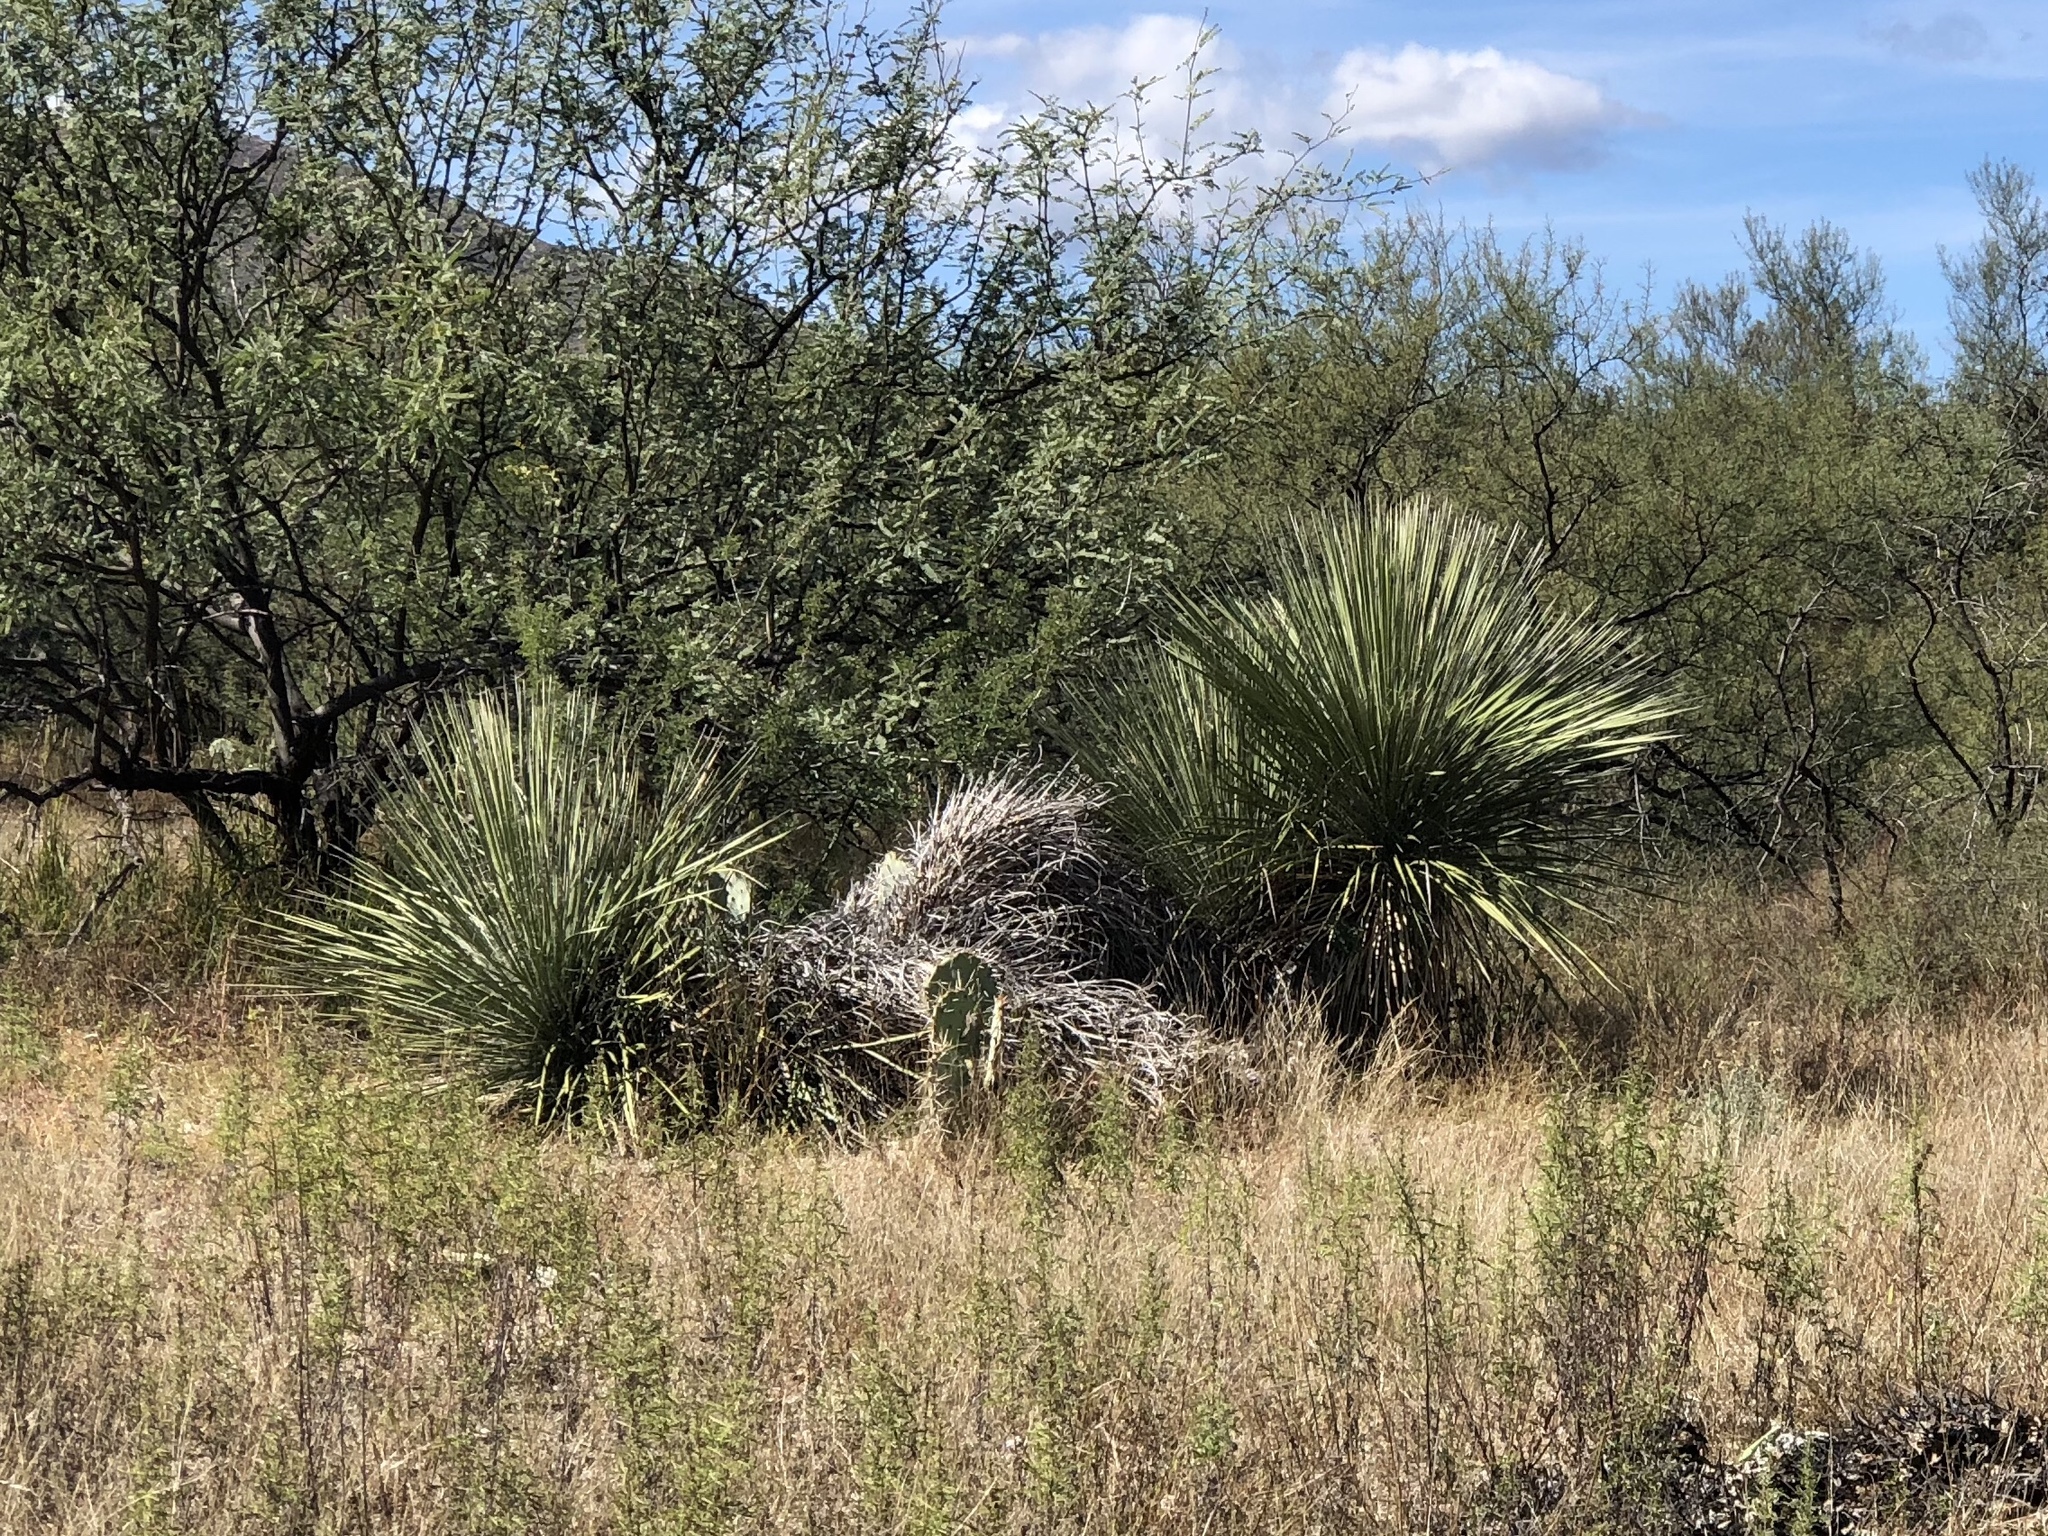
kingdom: Plantae
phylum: Tracheophyta
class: Liliopsida
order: Asparagales
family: Asparagaceae
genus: Yucca
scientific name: Yucca elata
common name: Palmella
